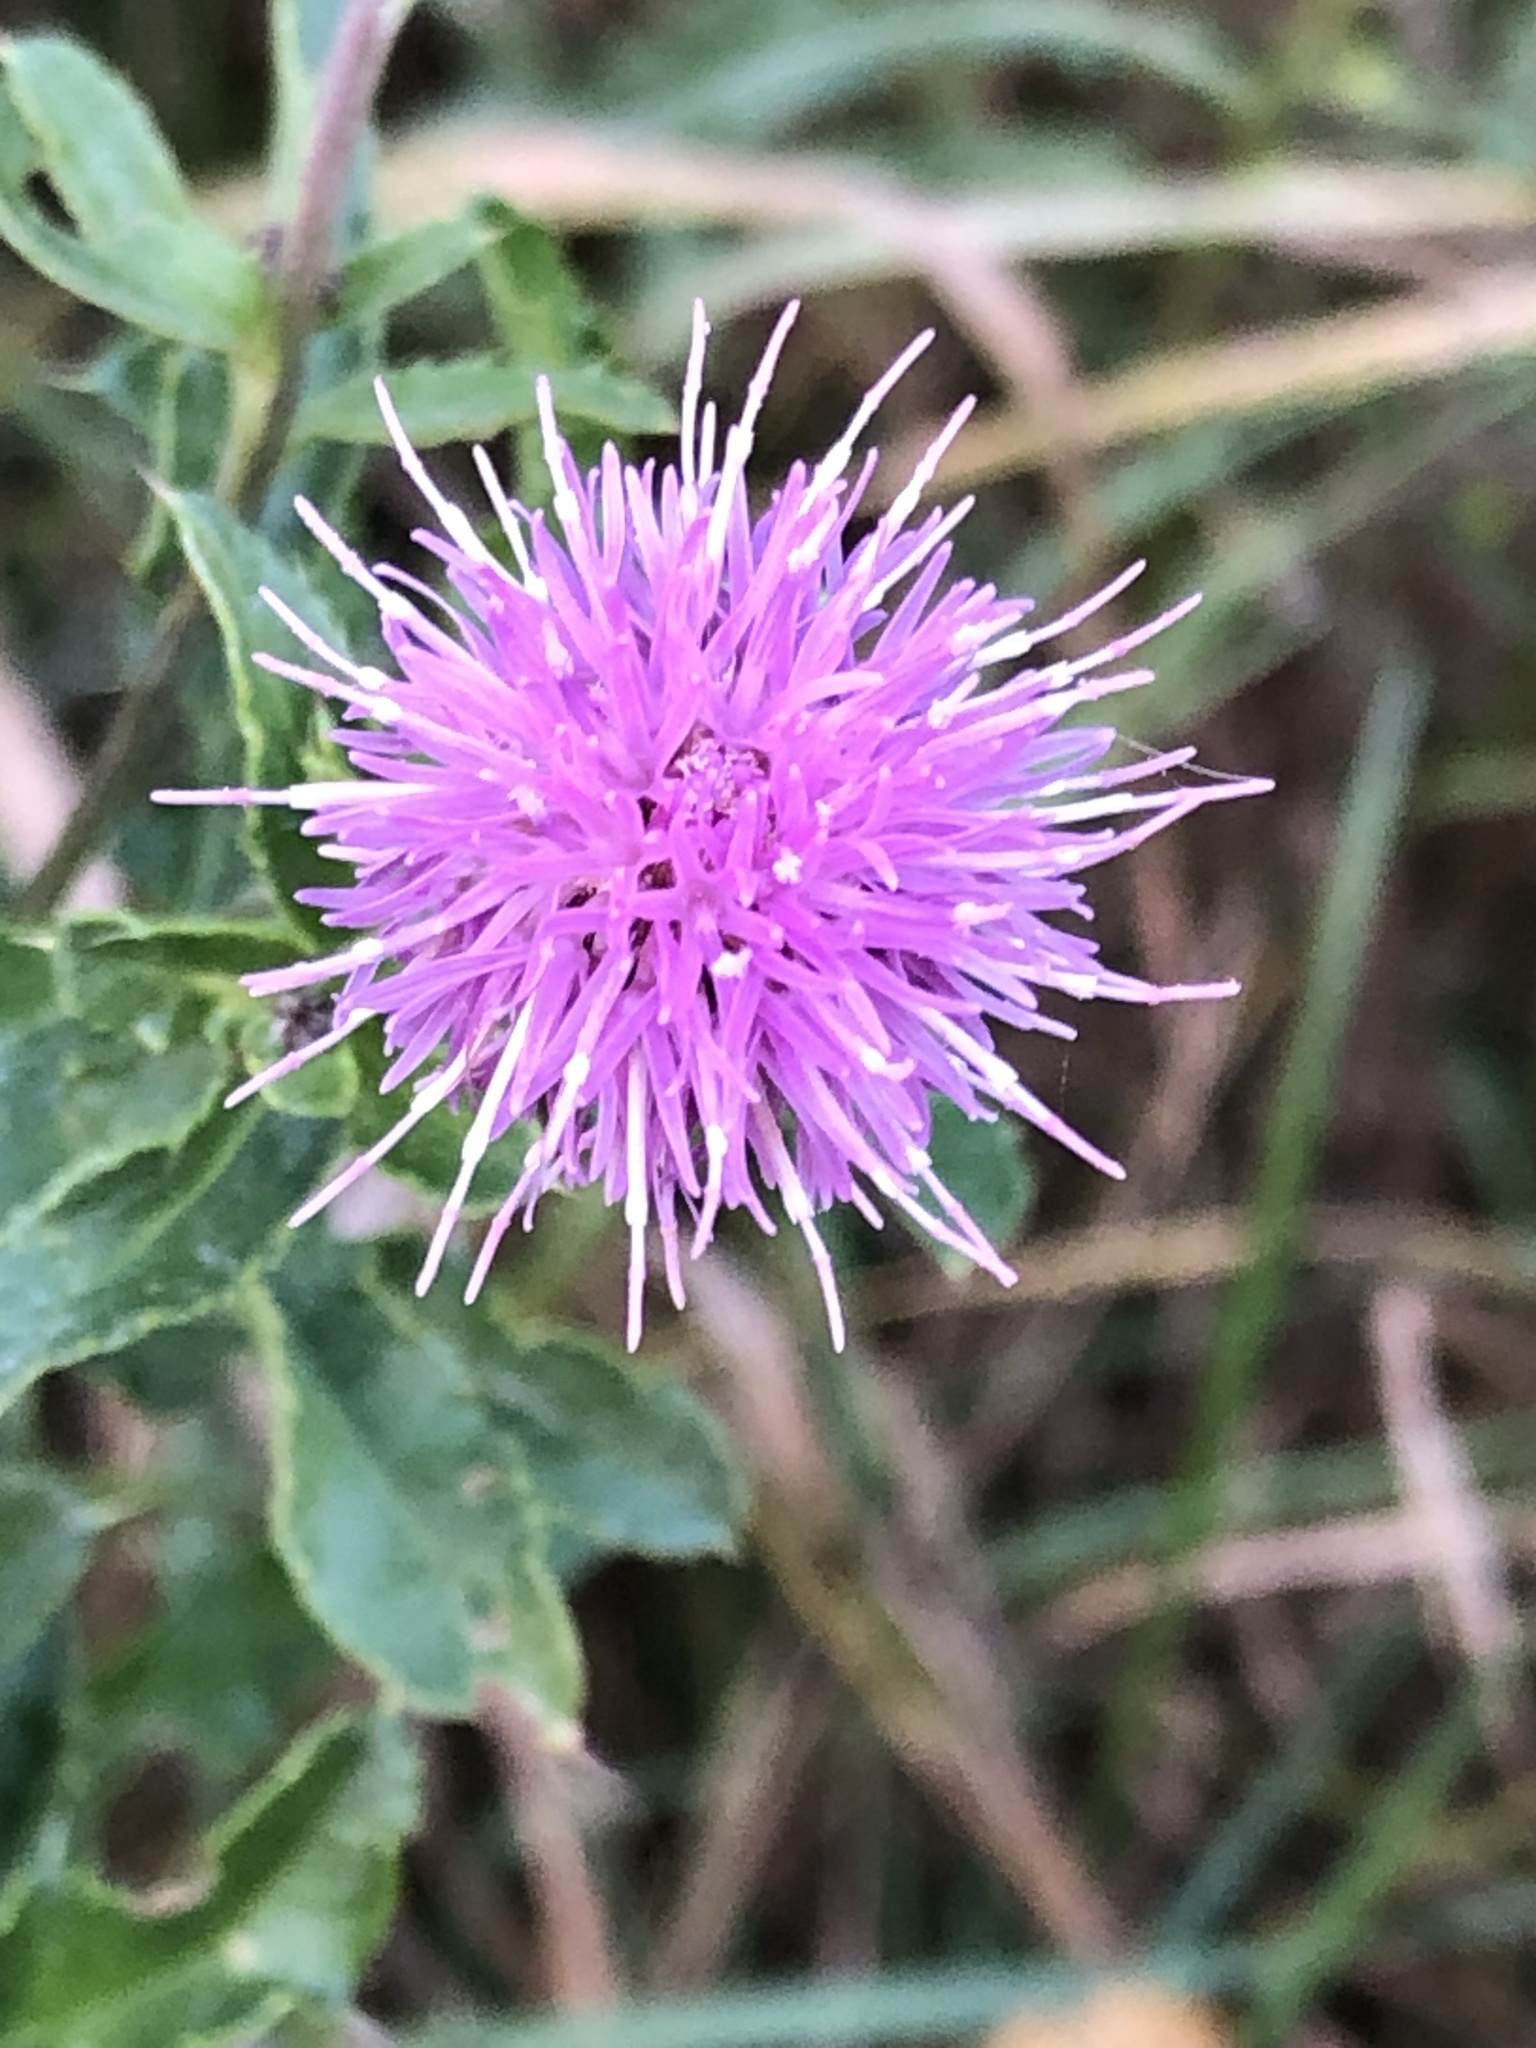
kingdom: Plantae
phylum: Tracheophyta
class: Magnoliopsida
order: Asterales
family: Asteraceae
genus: Cirsium
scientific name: Cirsium arvense
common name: Creeping thistle
